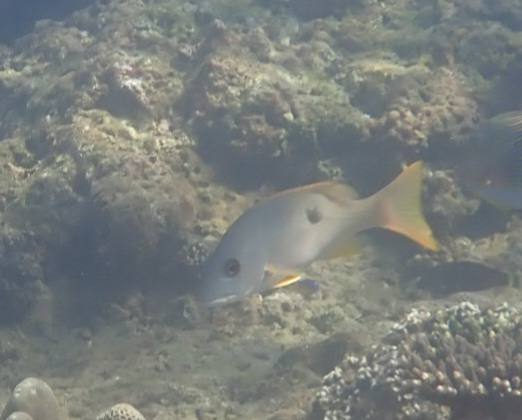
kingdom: Animalia
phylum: Chordata
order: Perciformes
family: Lutjanidae
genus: Lutjanus
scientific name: Lutjanus monostigma
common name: Onespot snapper
